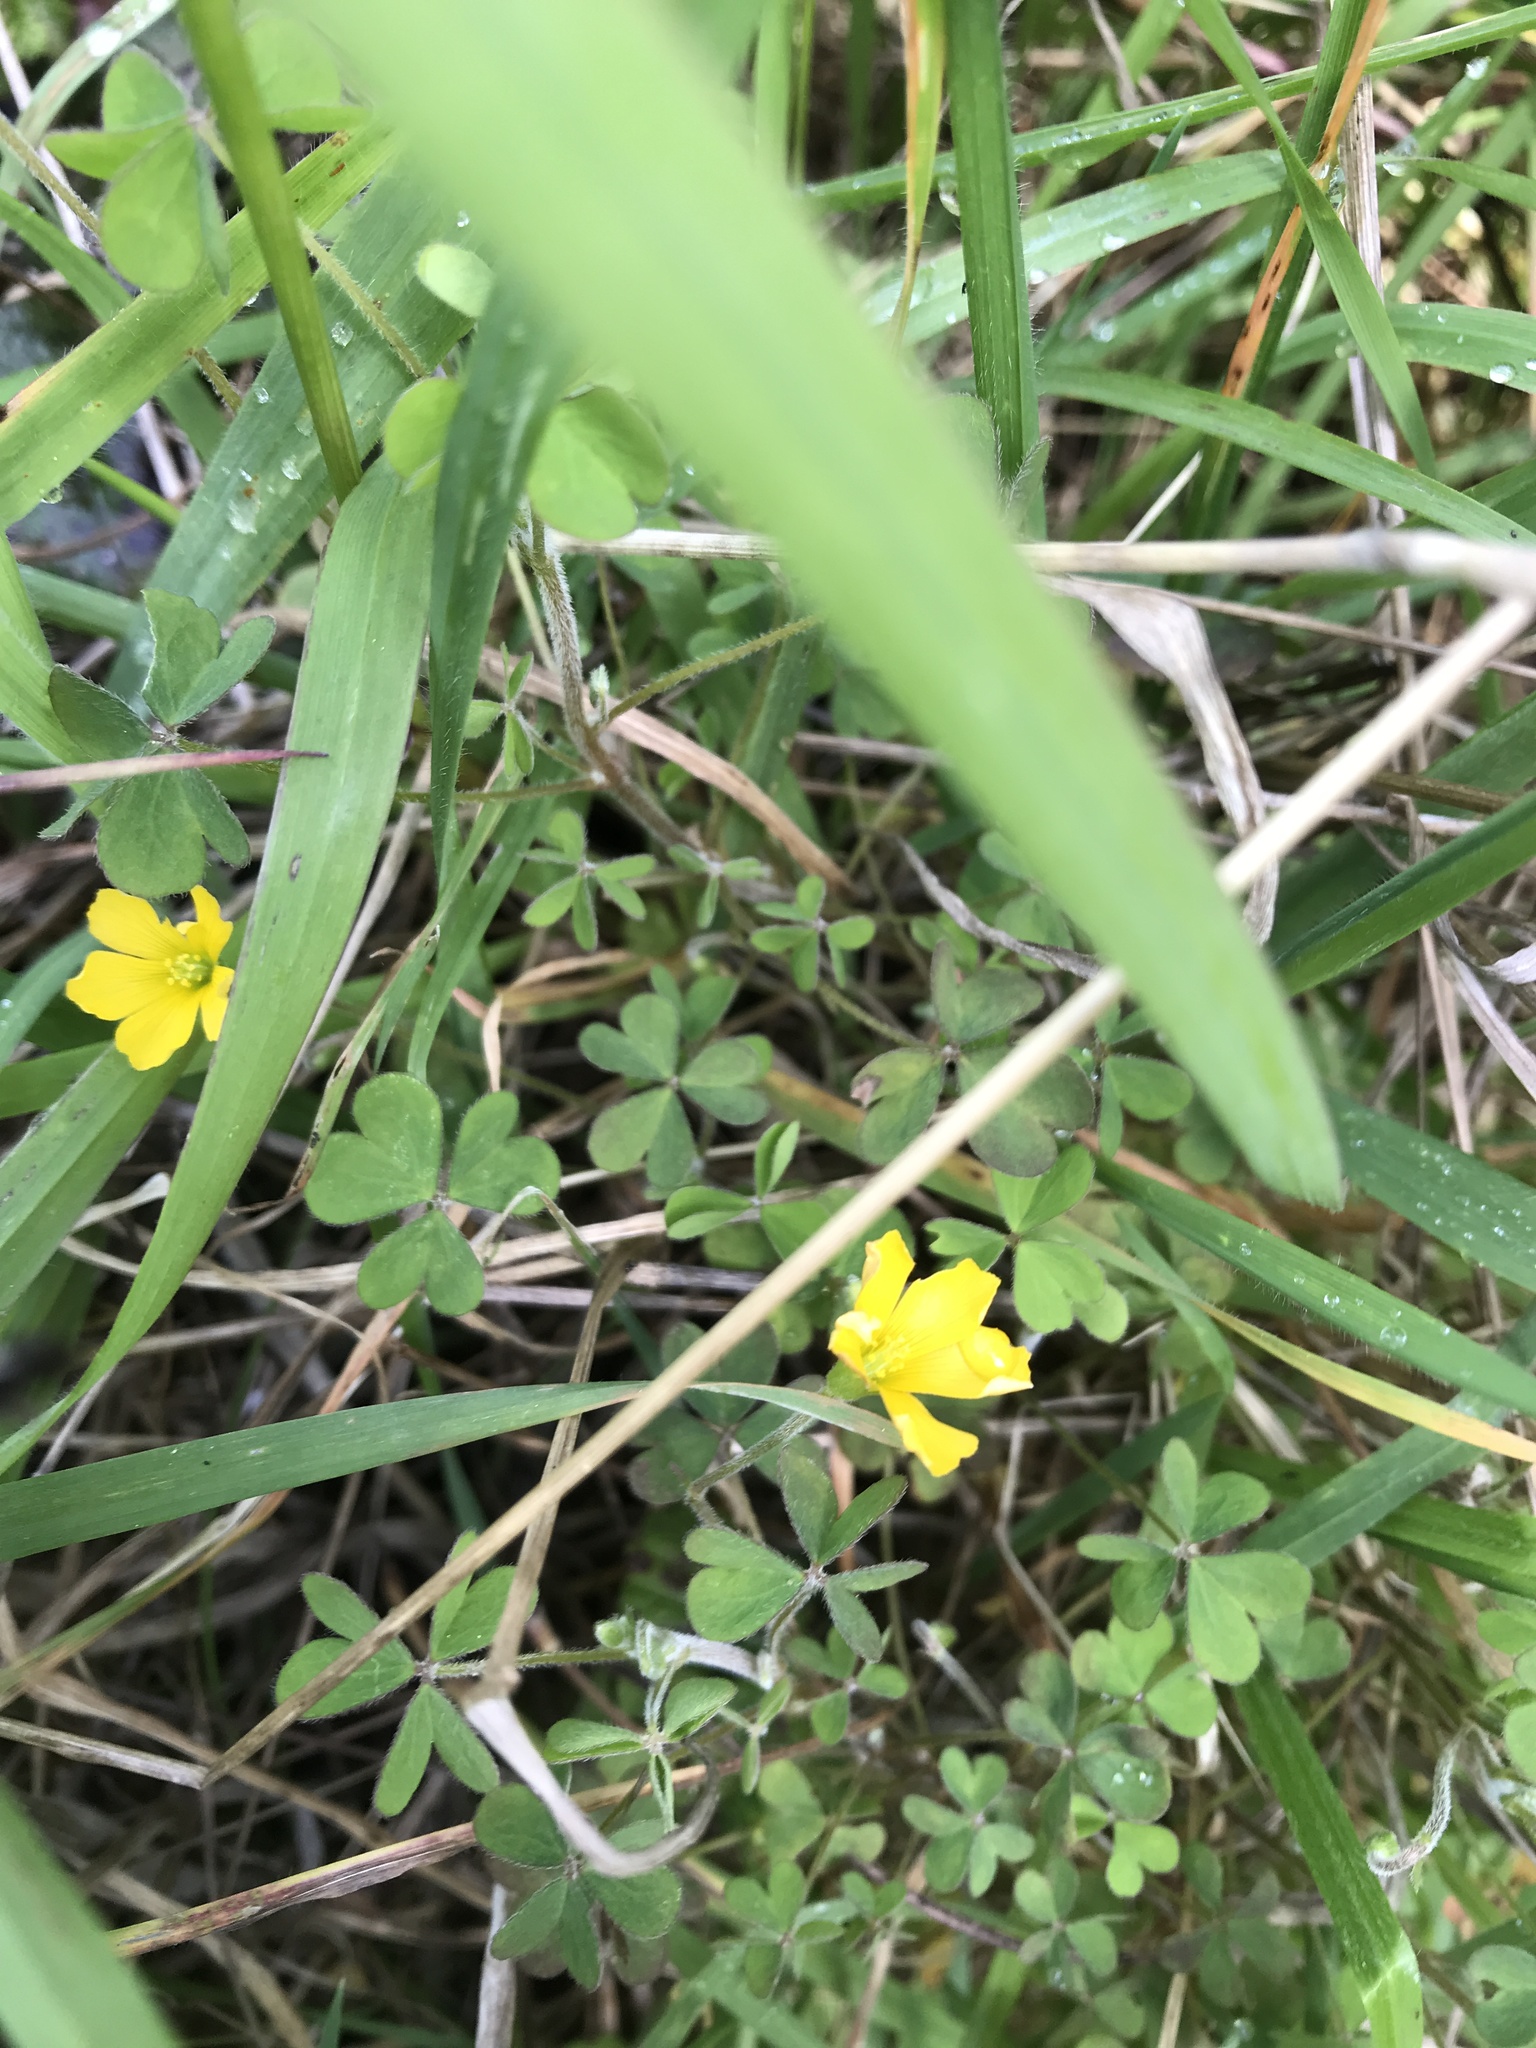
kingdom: Plantae
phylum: Tracheophyta
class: Magnoliopsida
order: Oxalidales
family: Oxalidaceae
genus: Oxalis
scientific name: Oxalis corniculata
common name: Procumbent yellow-sorrel
